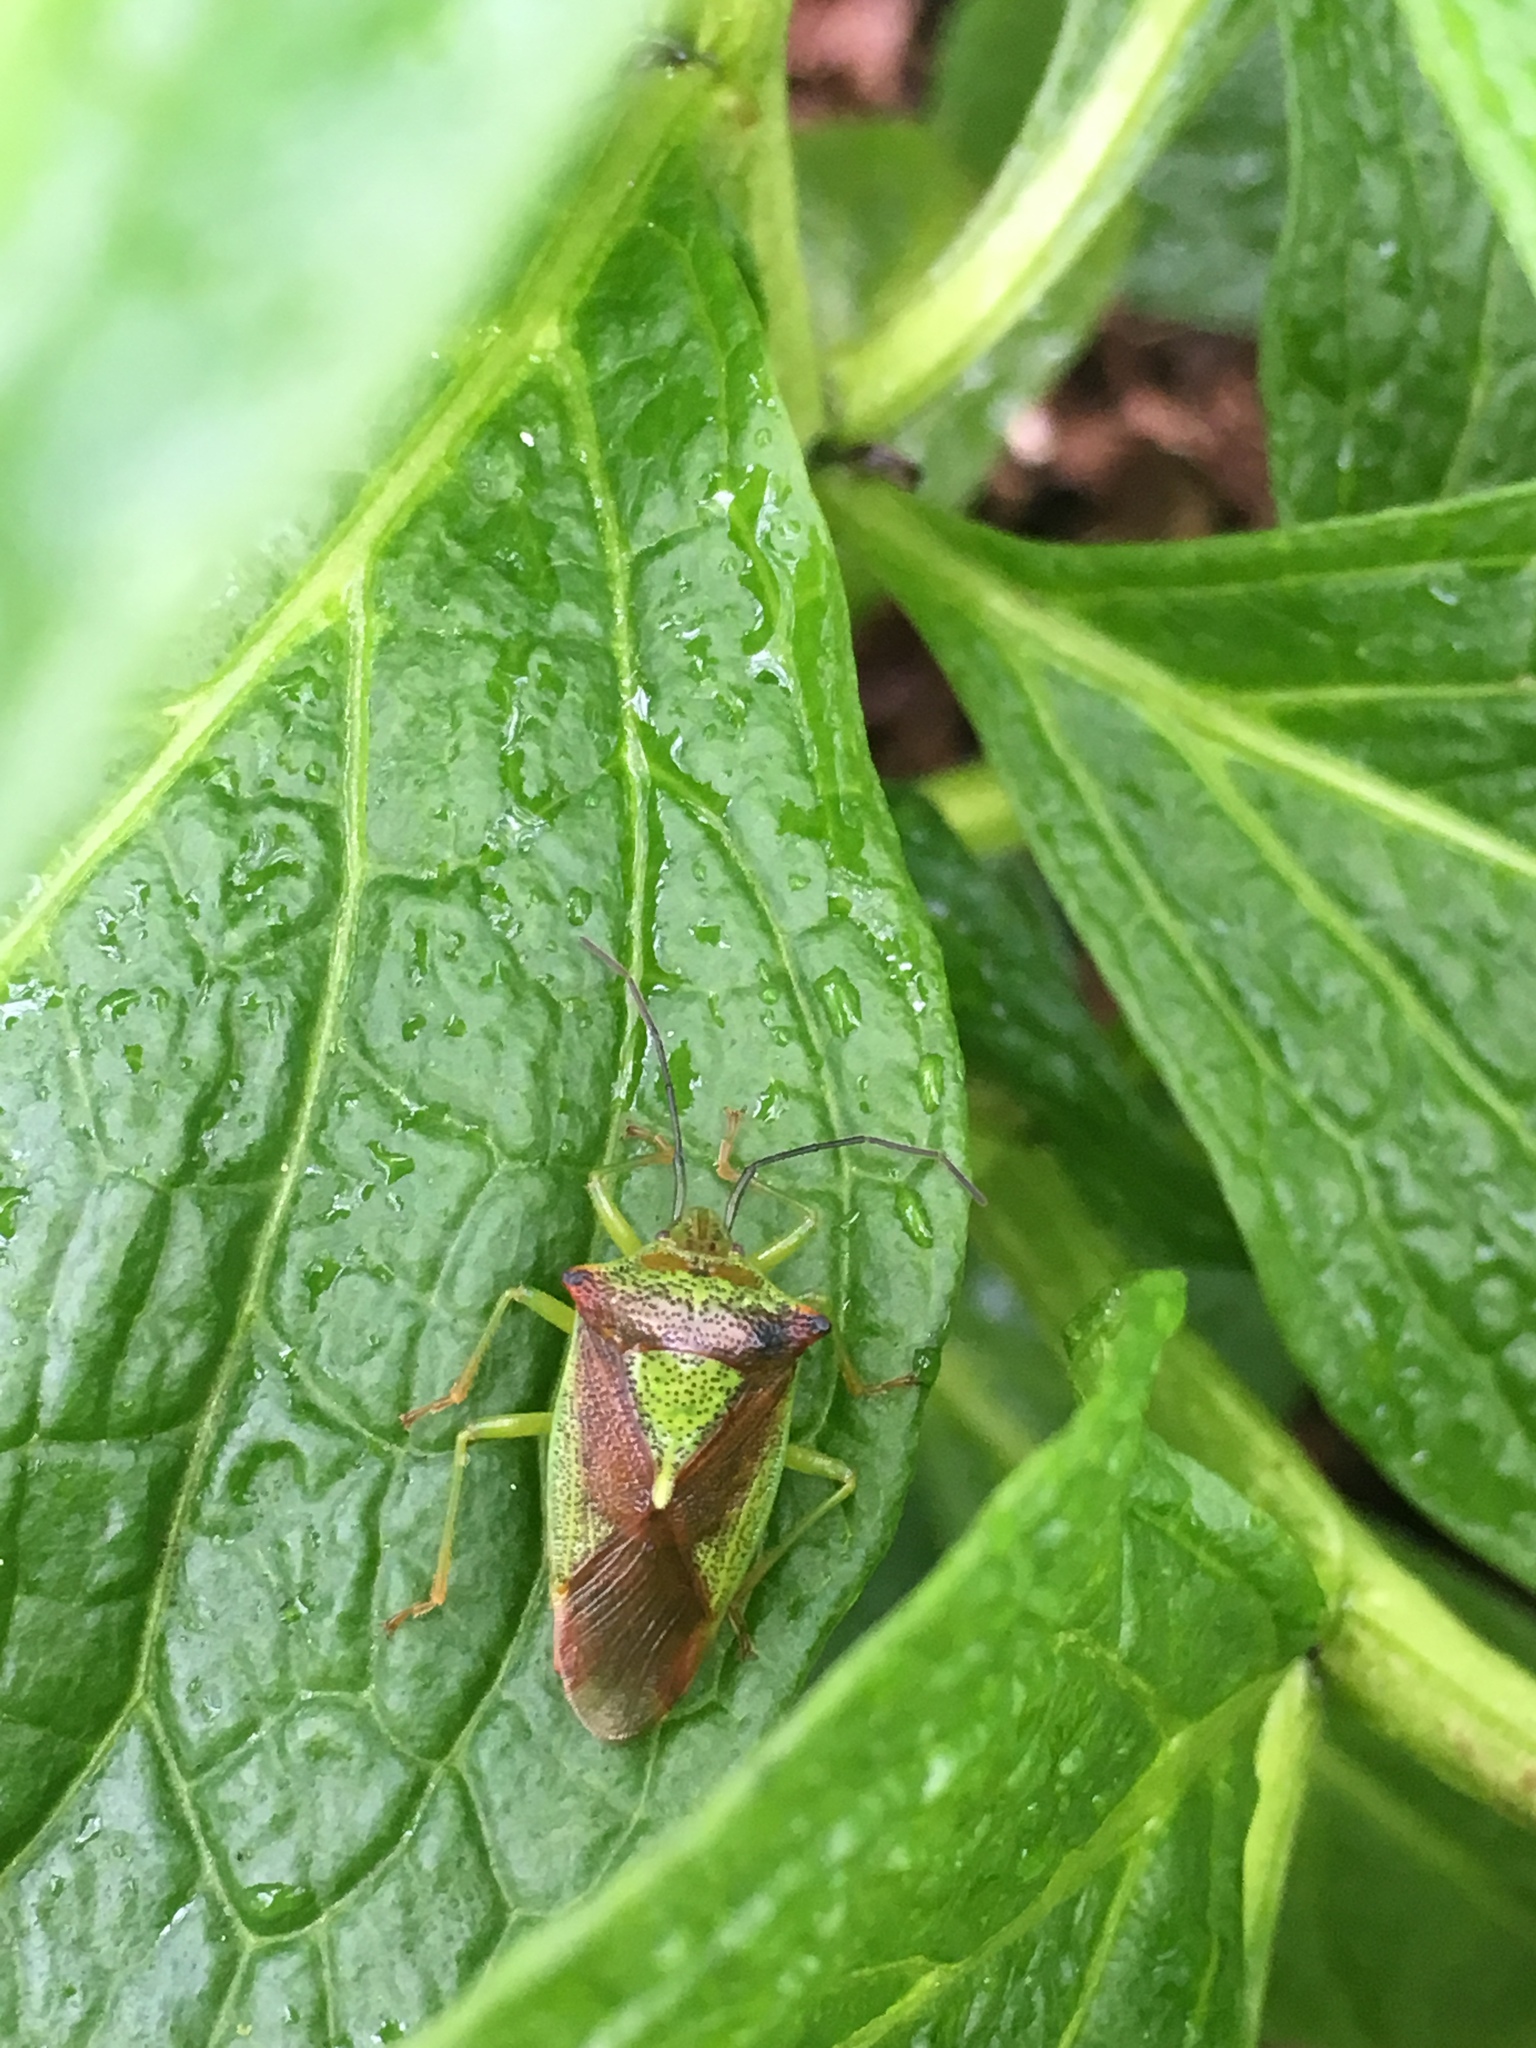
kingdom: Animalia
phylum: Arthropoda
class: Insecta
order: Hemiptera
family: Acanthosomatidae
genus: Acanthosoma
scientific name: Acanthosoma haemorrhoidale
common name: Hawthorn shieldbug
